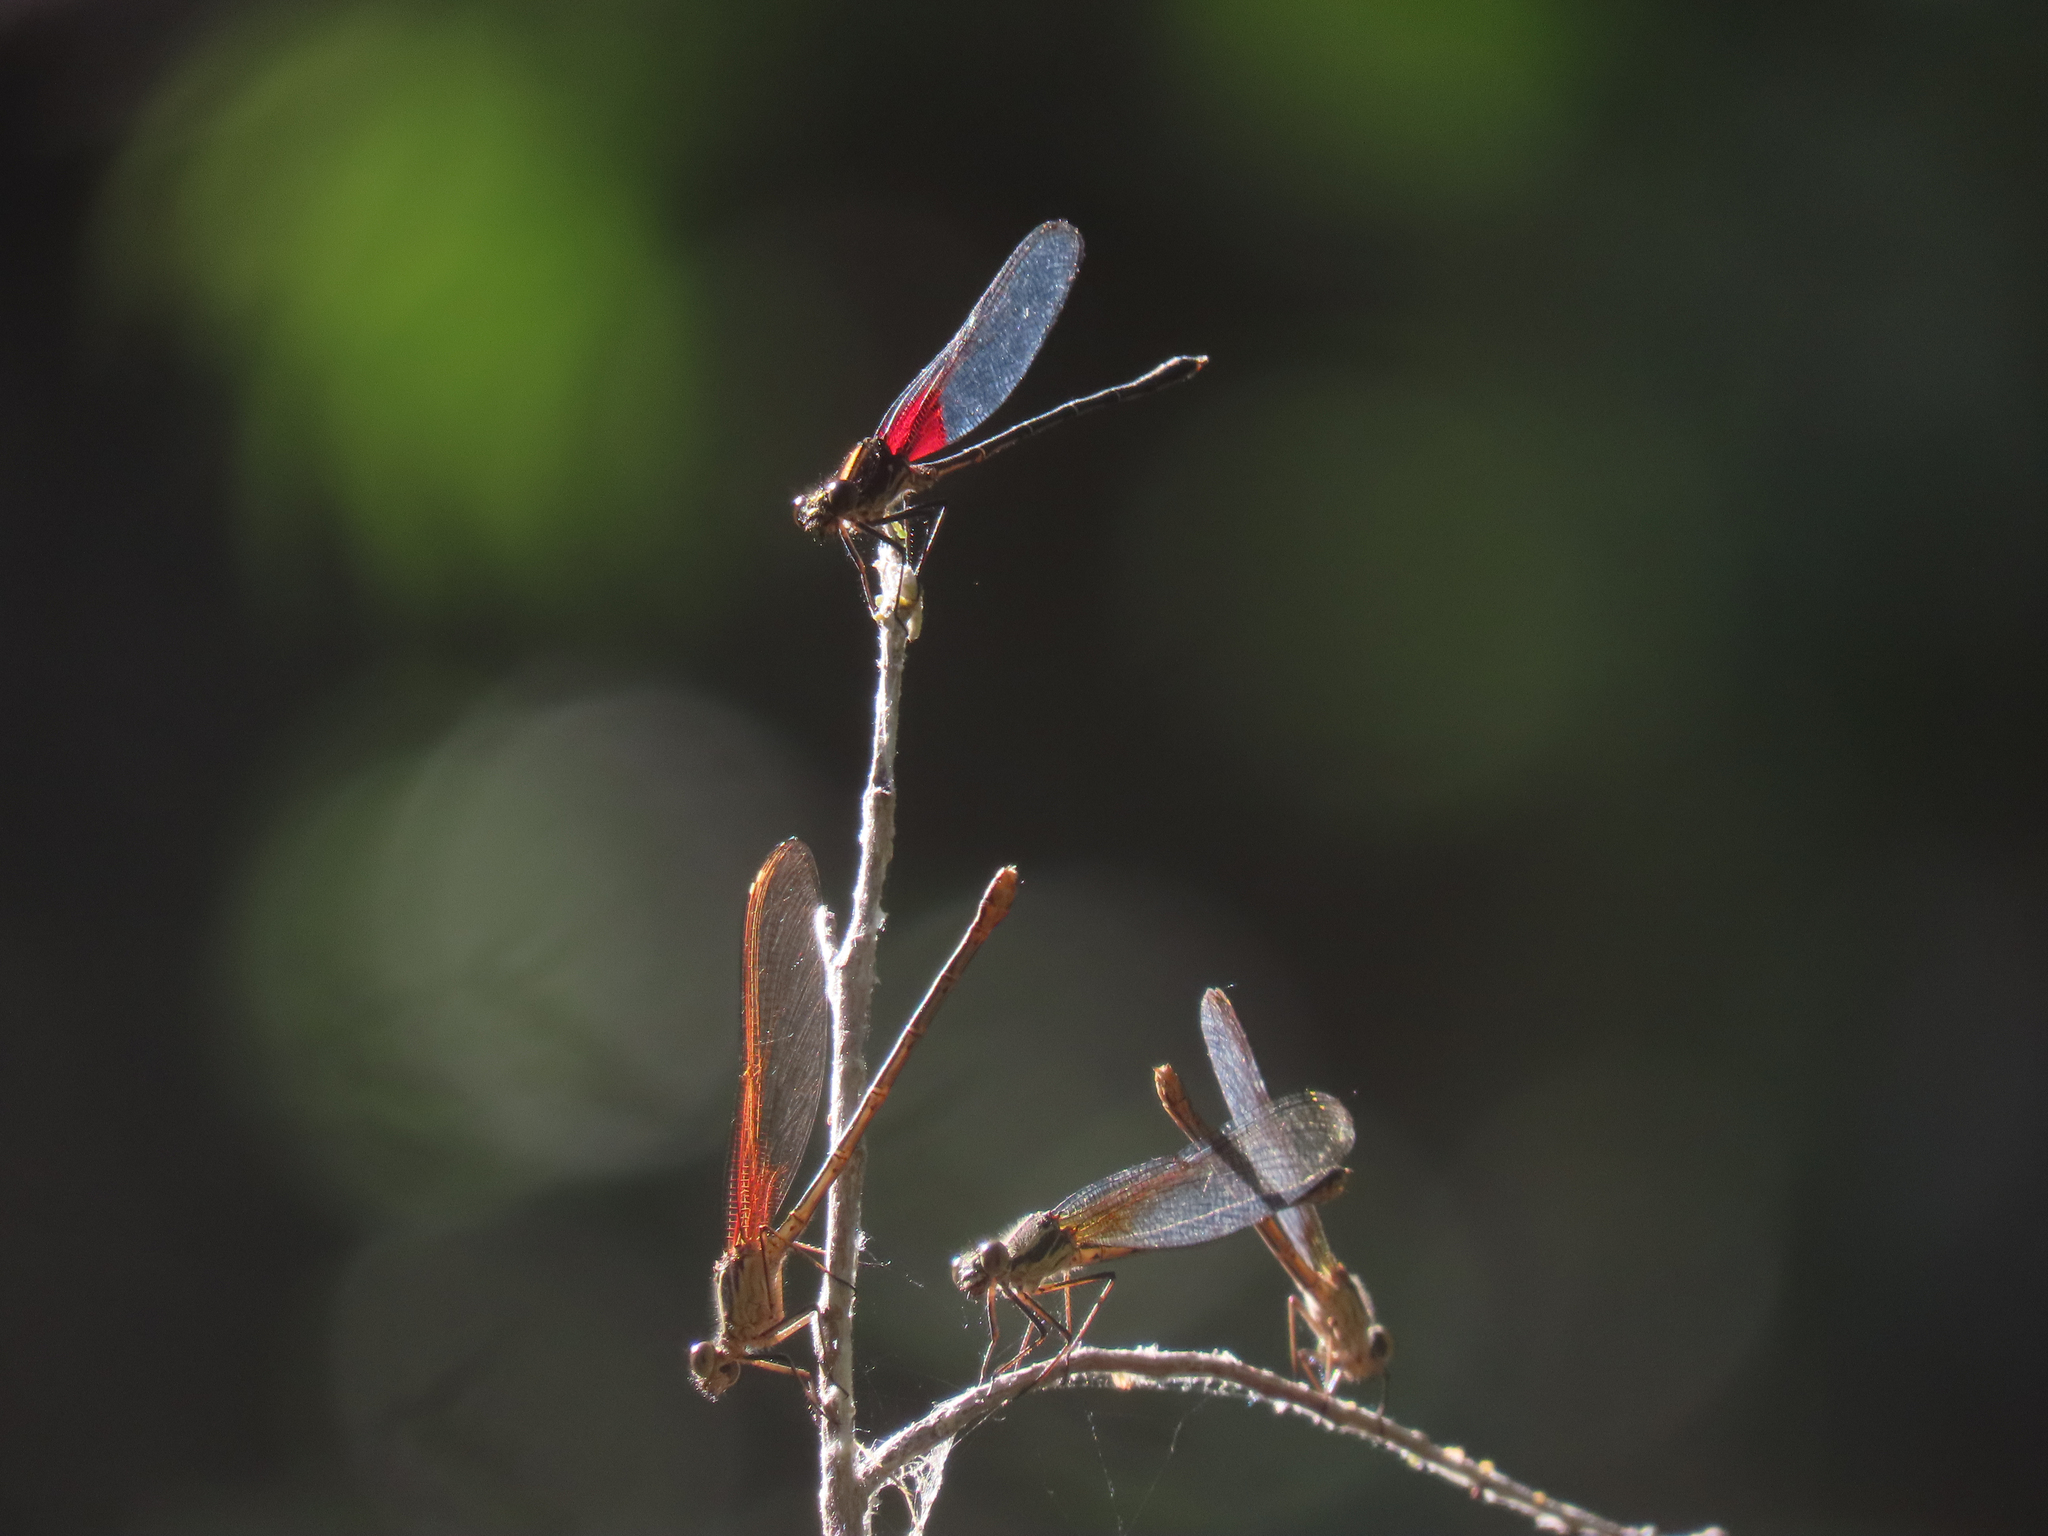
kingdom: Animalia
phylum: Arthropoda
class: Insecta
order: Odonata
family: Calopterygidae
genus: Hetaerina
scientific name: Hetaerina americana
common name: American rubyspot
